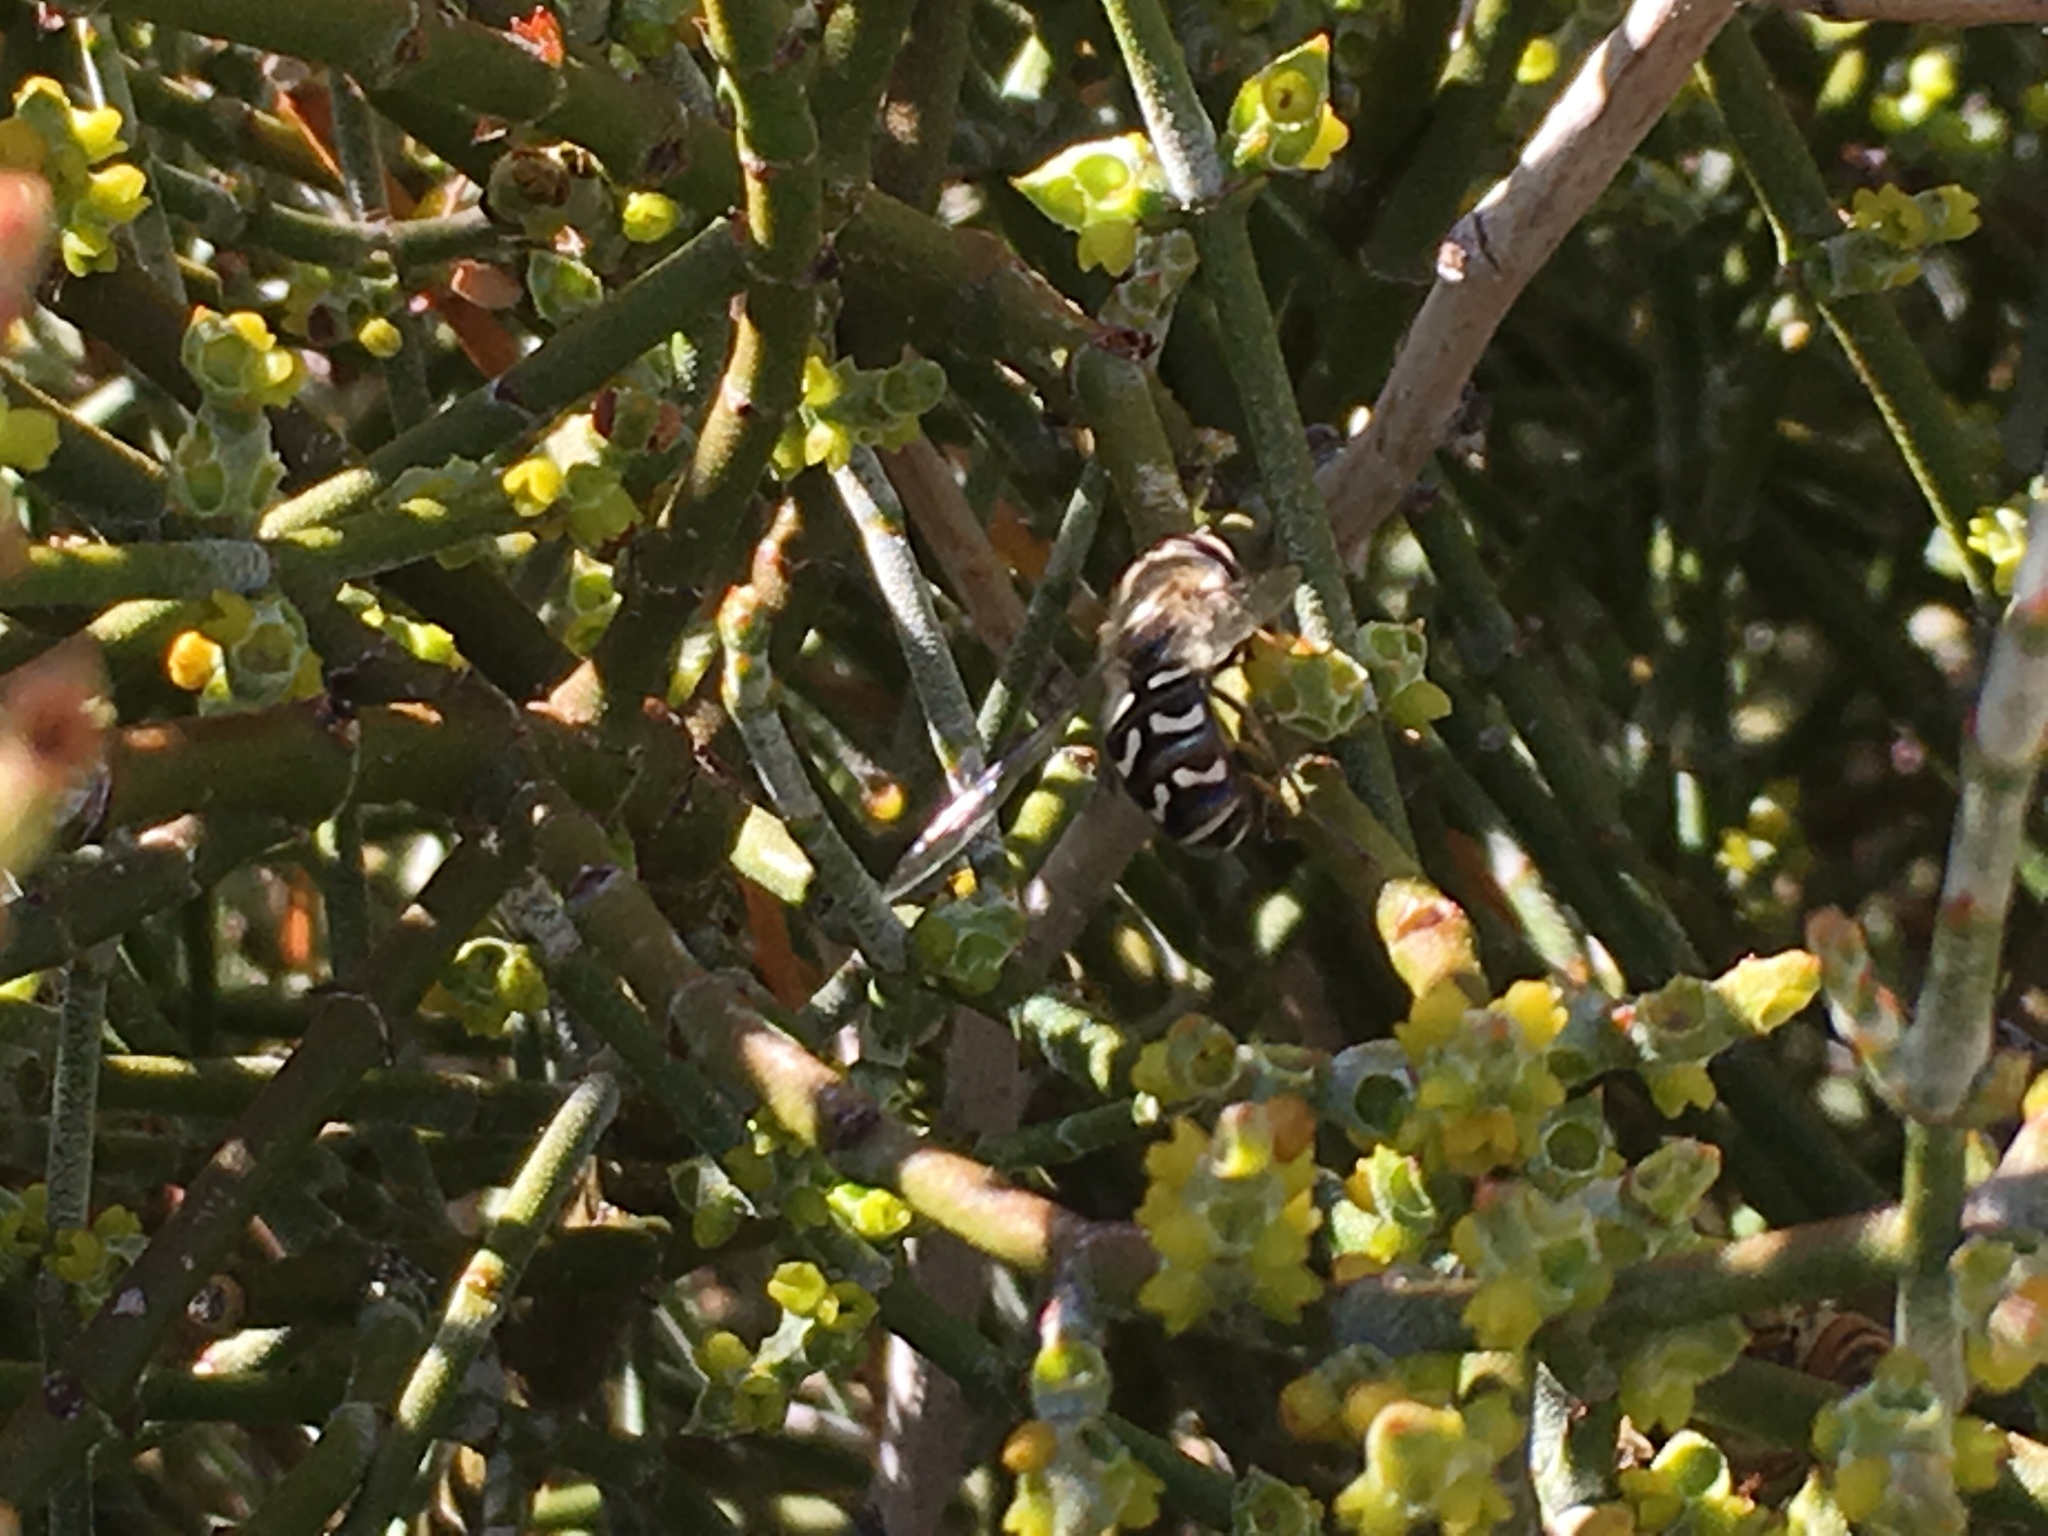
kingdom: Animalia
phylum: Arthropoda
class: Insecta
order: Diptera
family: Syrphidae
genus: Scaeva
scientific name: Scaeva affinis
